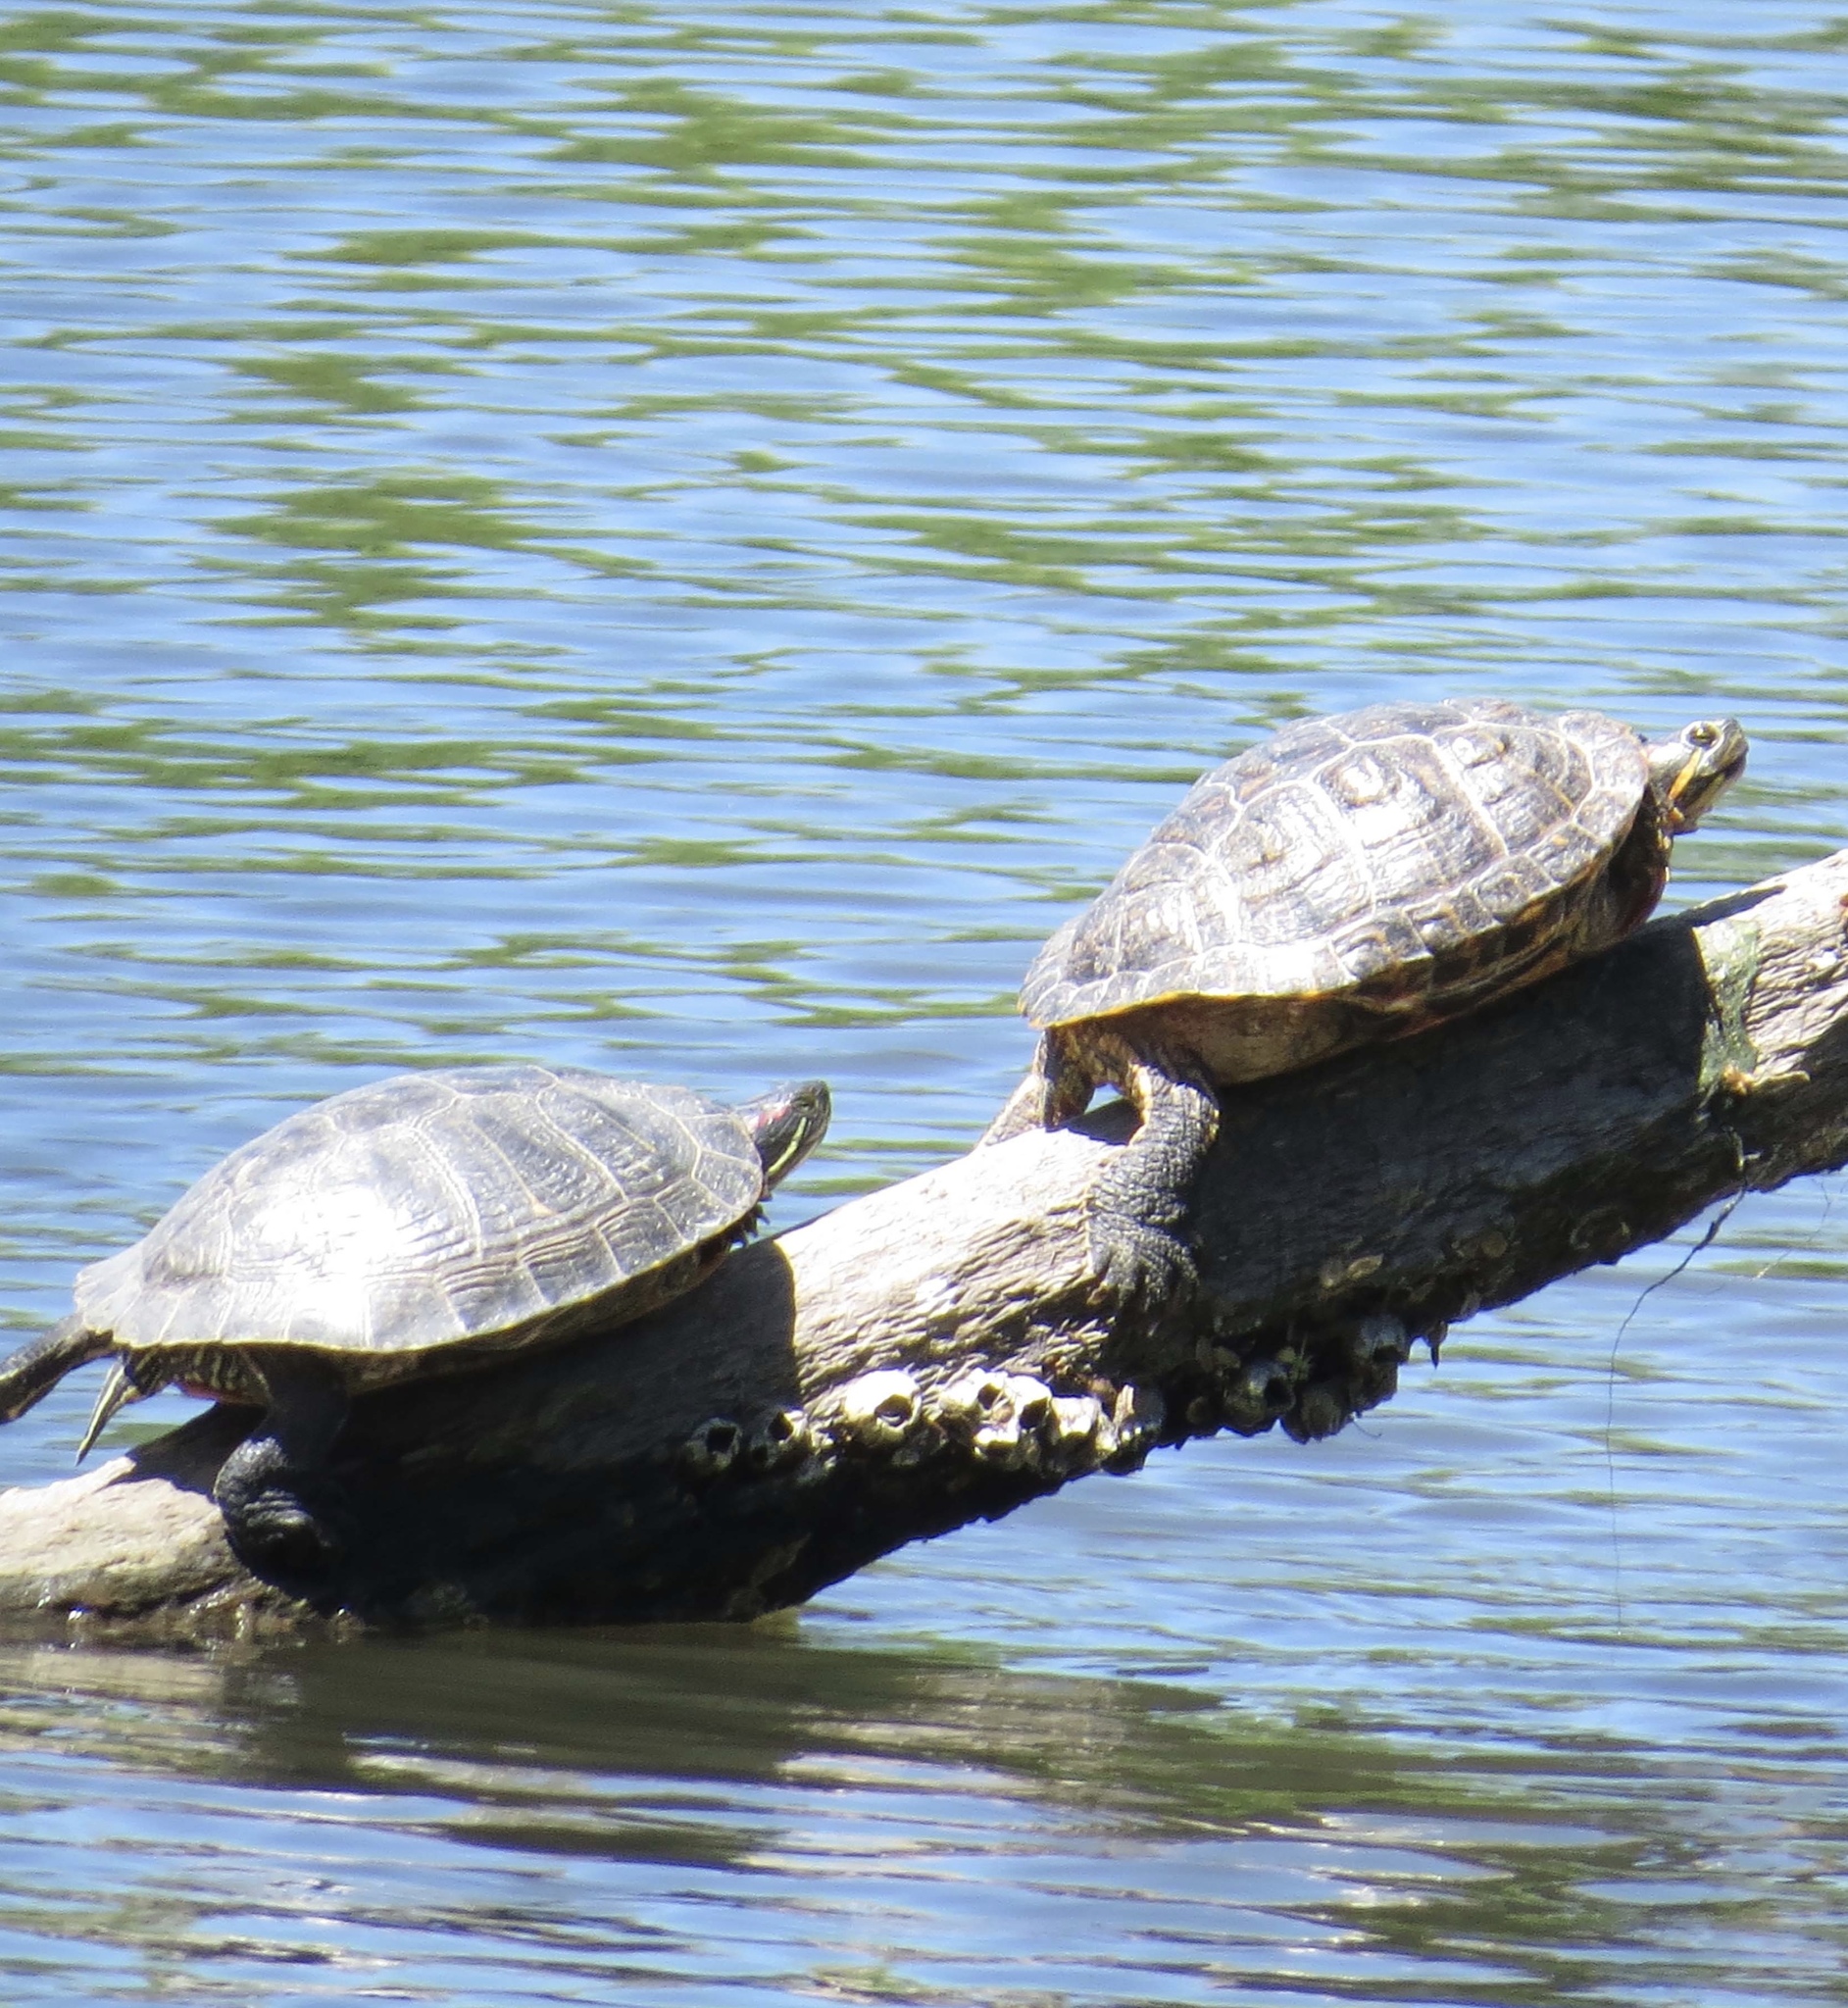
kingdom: Animalia
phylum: Chordata
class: Testudines
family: Emydidae
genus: Trachemys
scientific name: Trachemys scripta
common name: Slider
